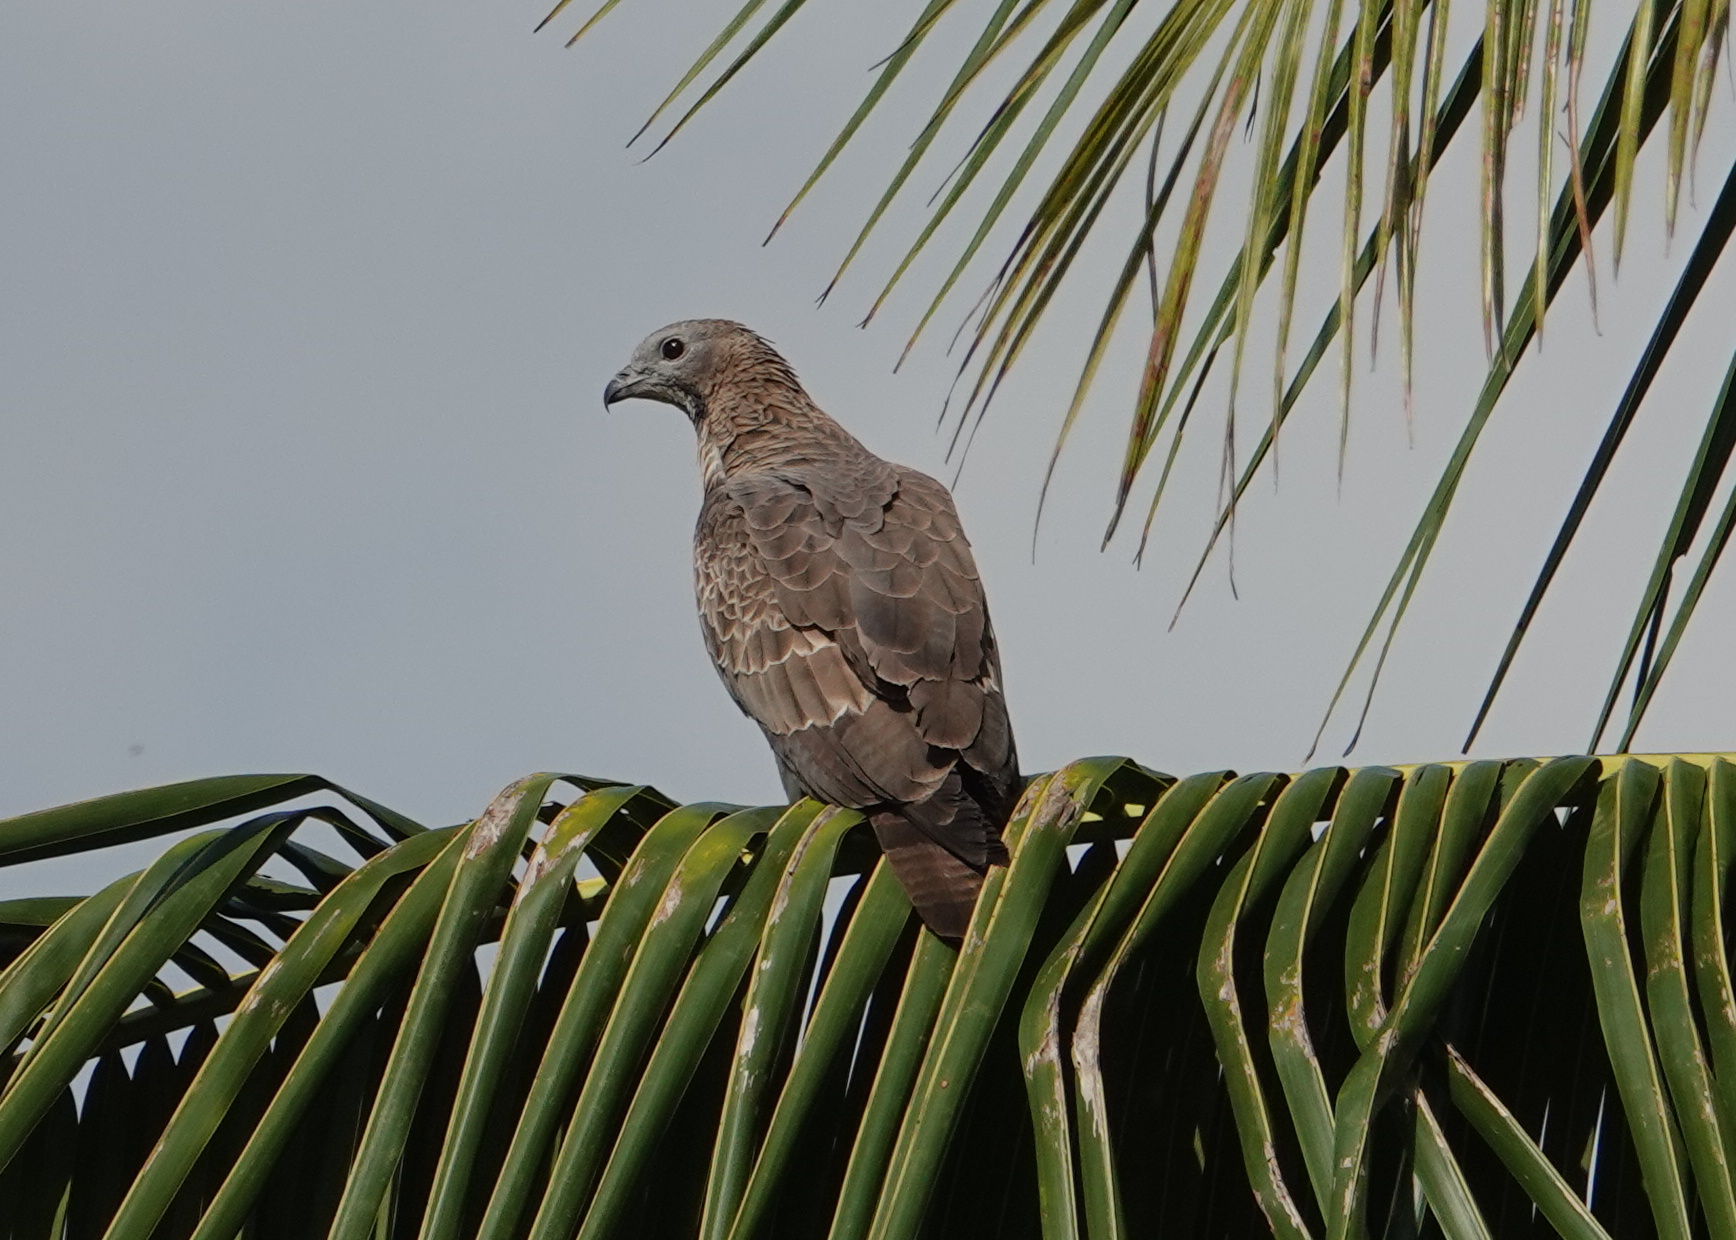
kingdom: Animalia
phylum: Chordata
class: Aves
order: Accipitriformes
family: Accipitridae
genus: Pernis
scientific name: Pernis ptilorhynchus
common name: Crested honey buzzard
